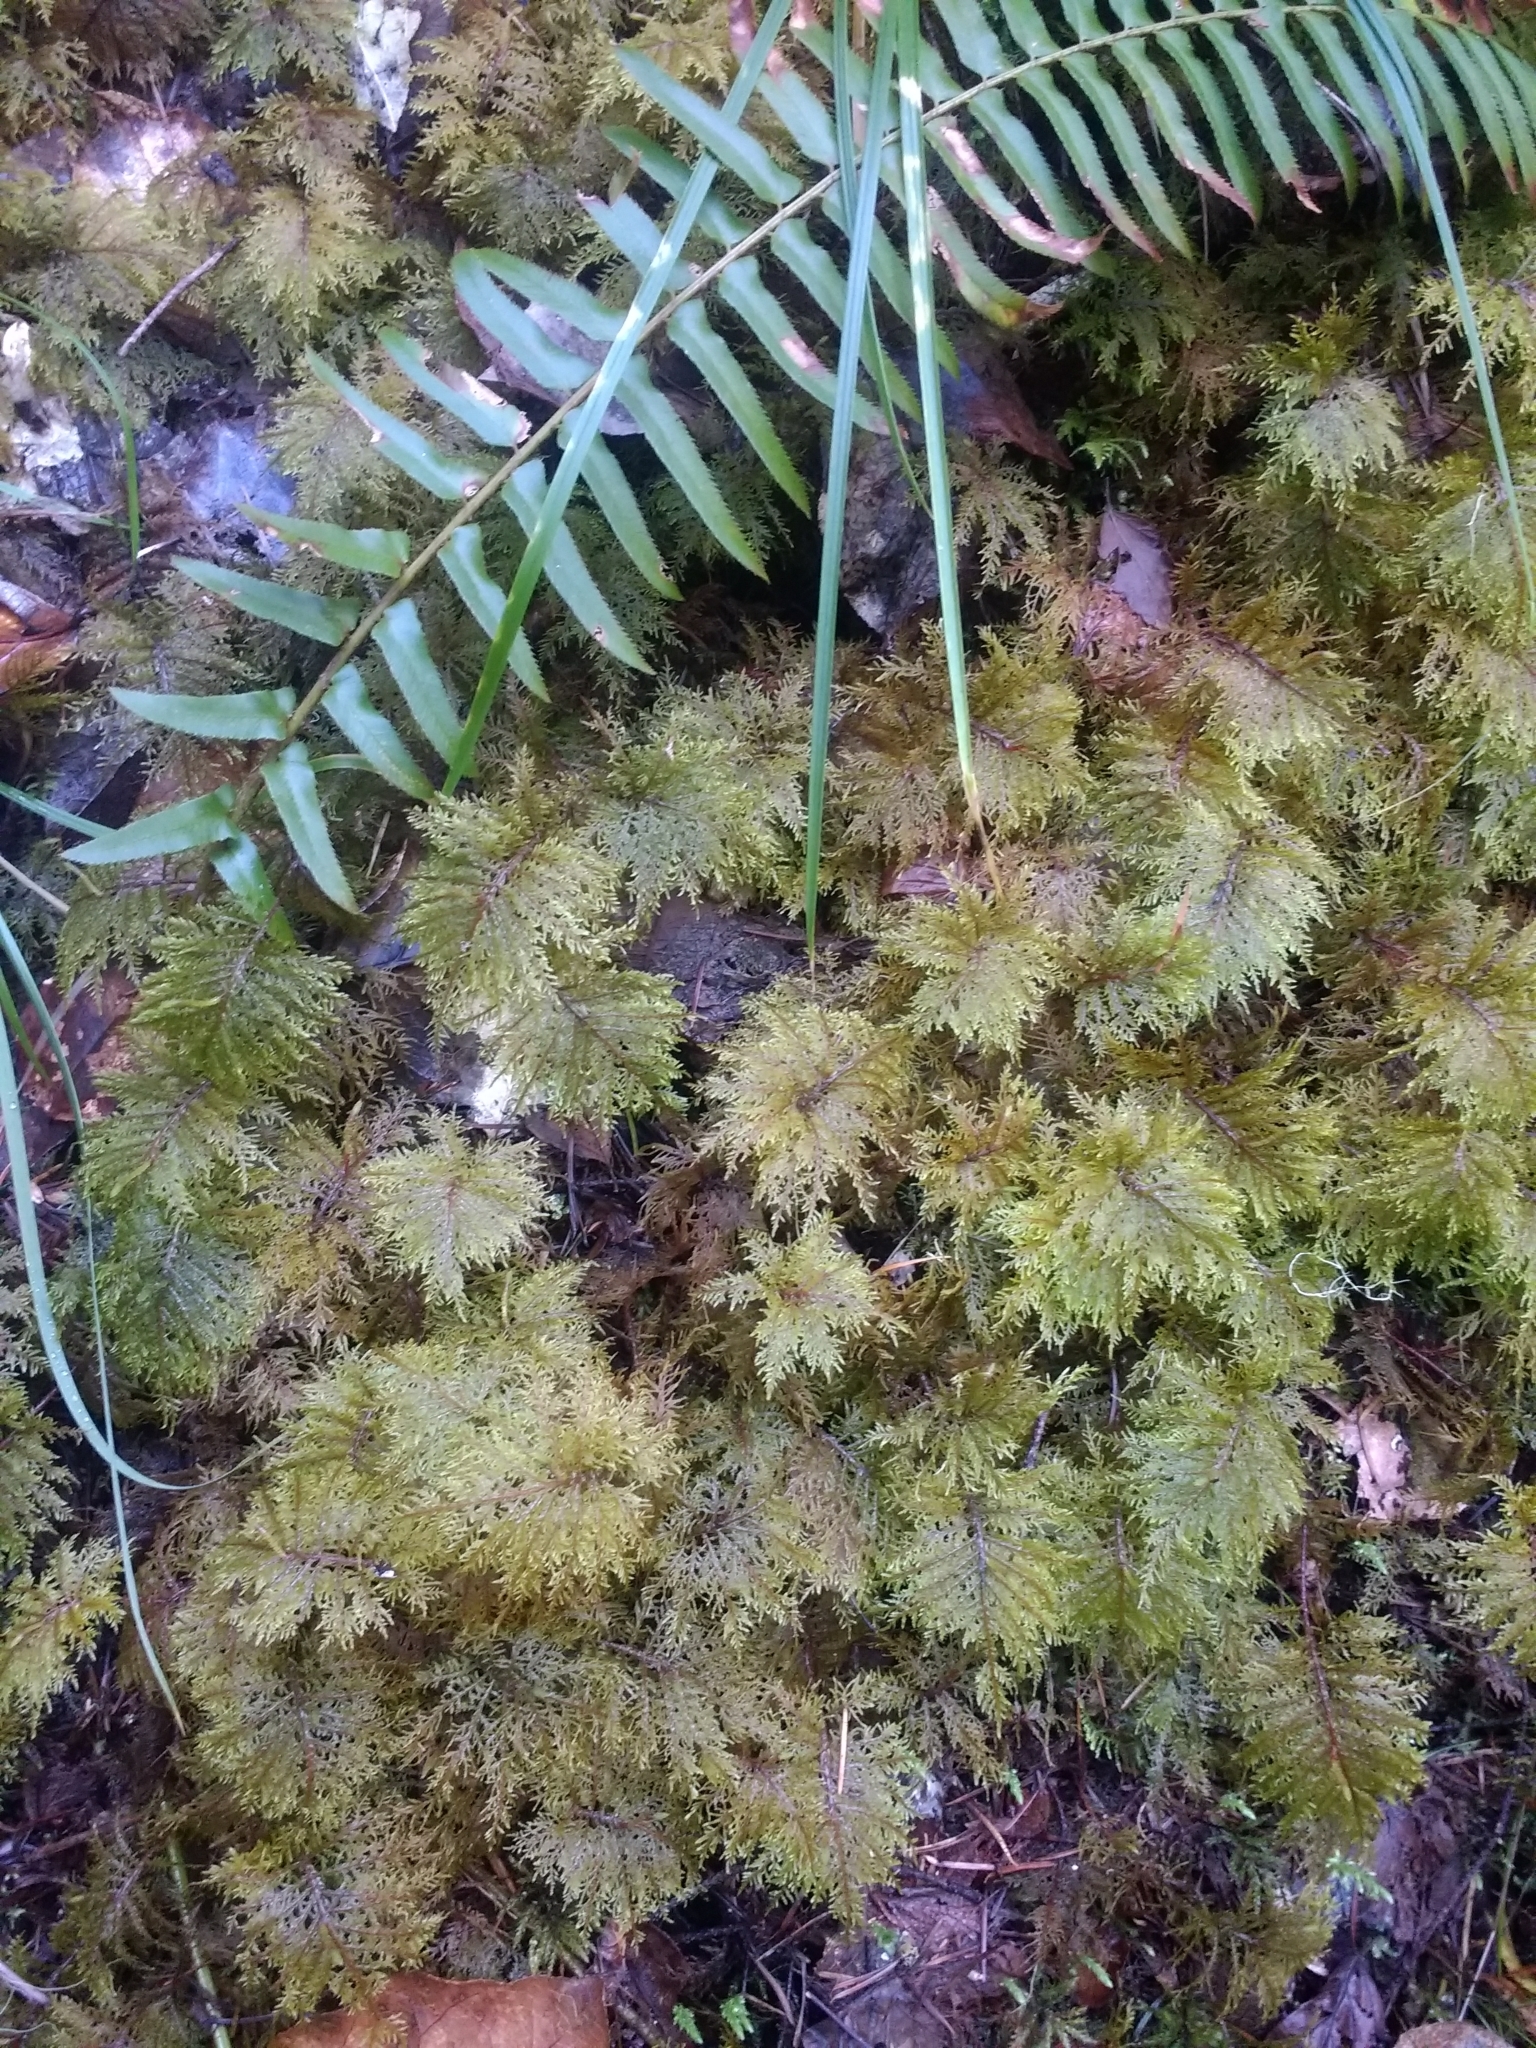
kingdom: Plantae
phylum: Bryophyta
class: Bryopsida
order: Hypnales
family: Hylocomiaceae
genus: Hylocomium
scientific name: Hylocomium splendens
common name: Stairstep moss
